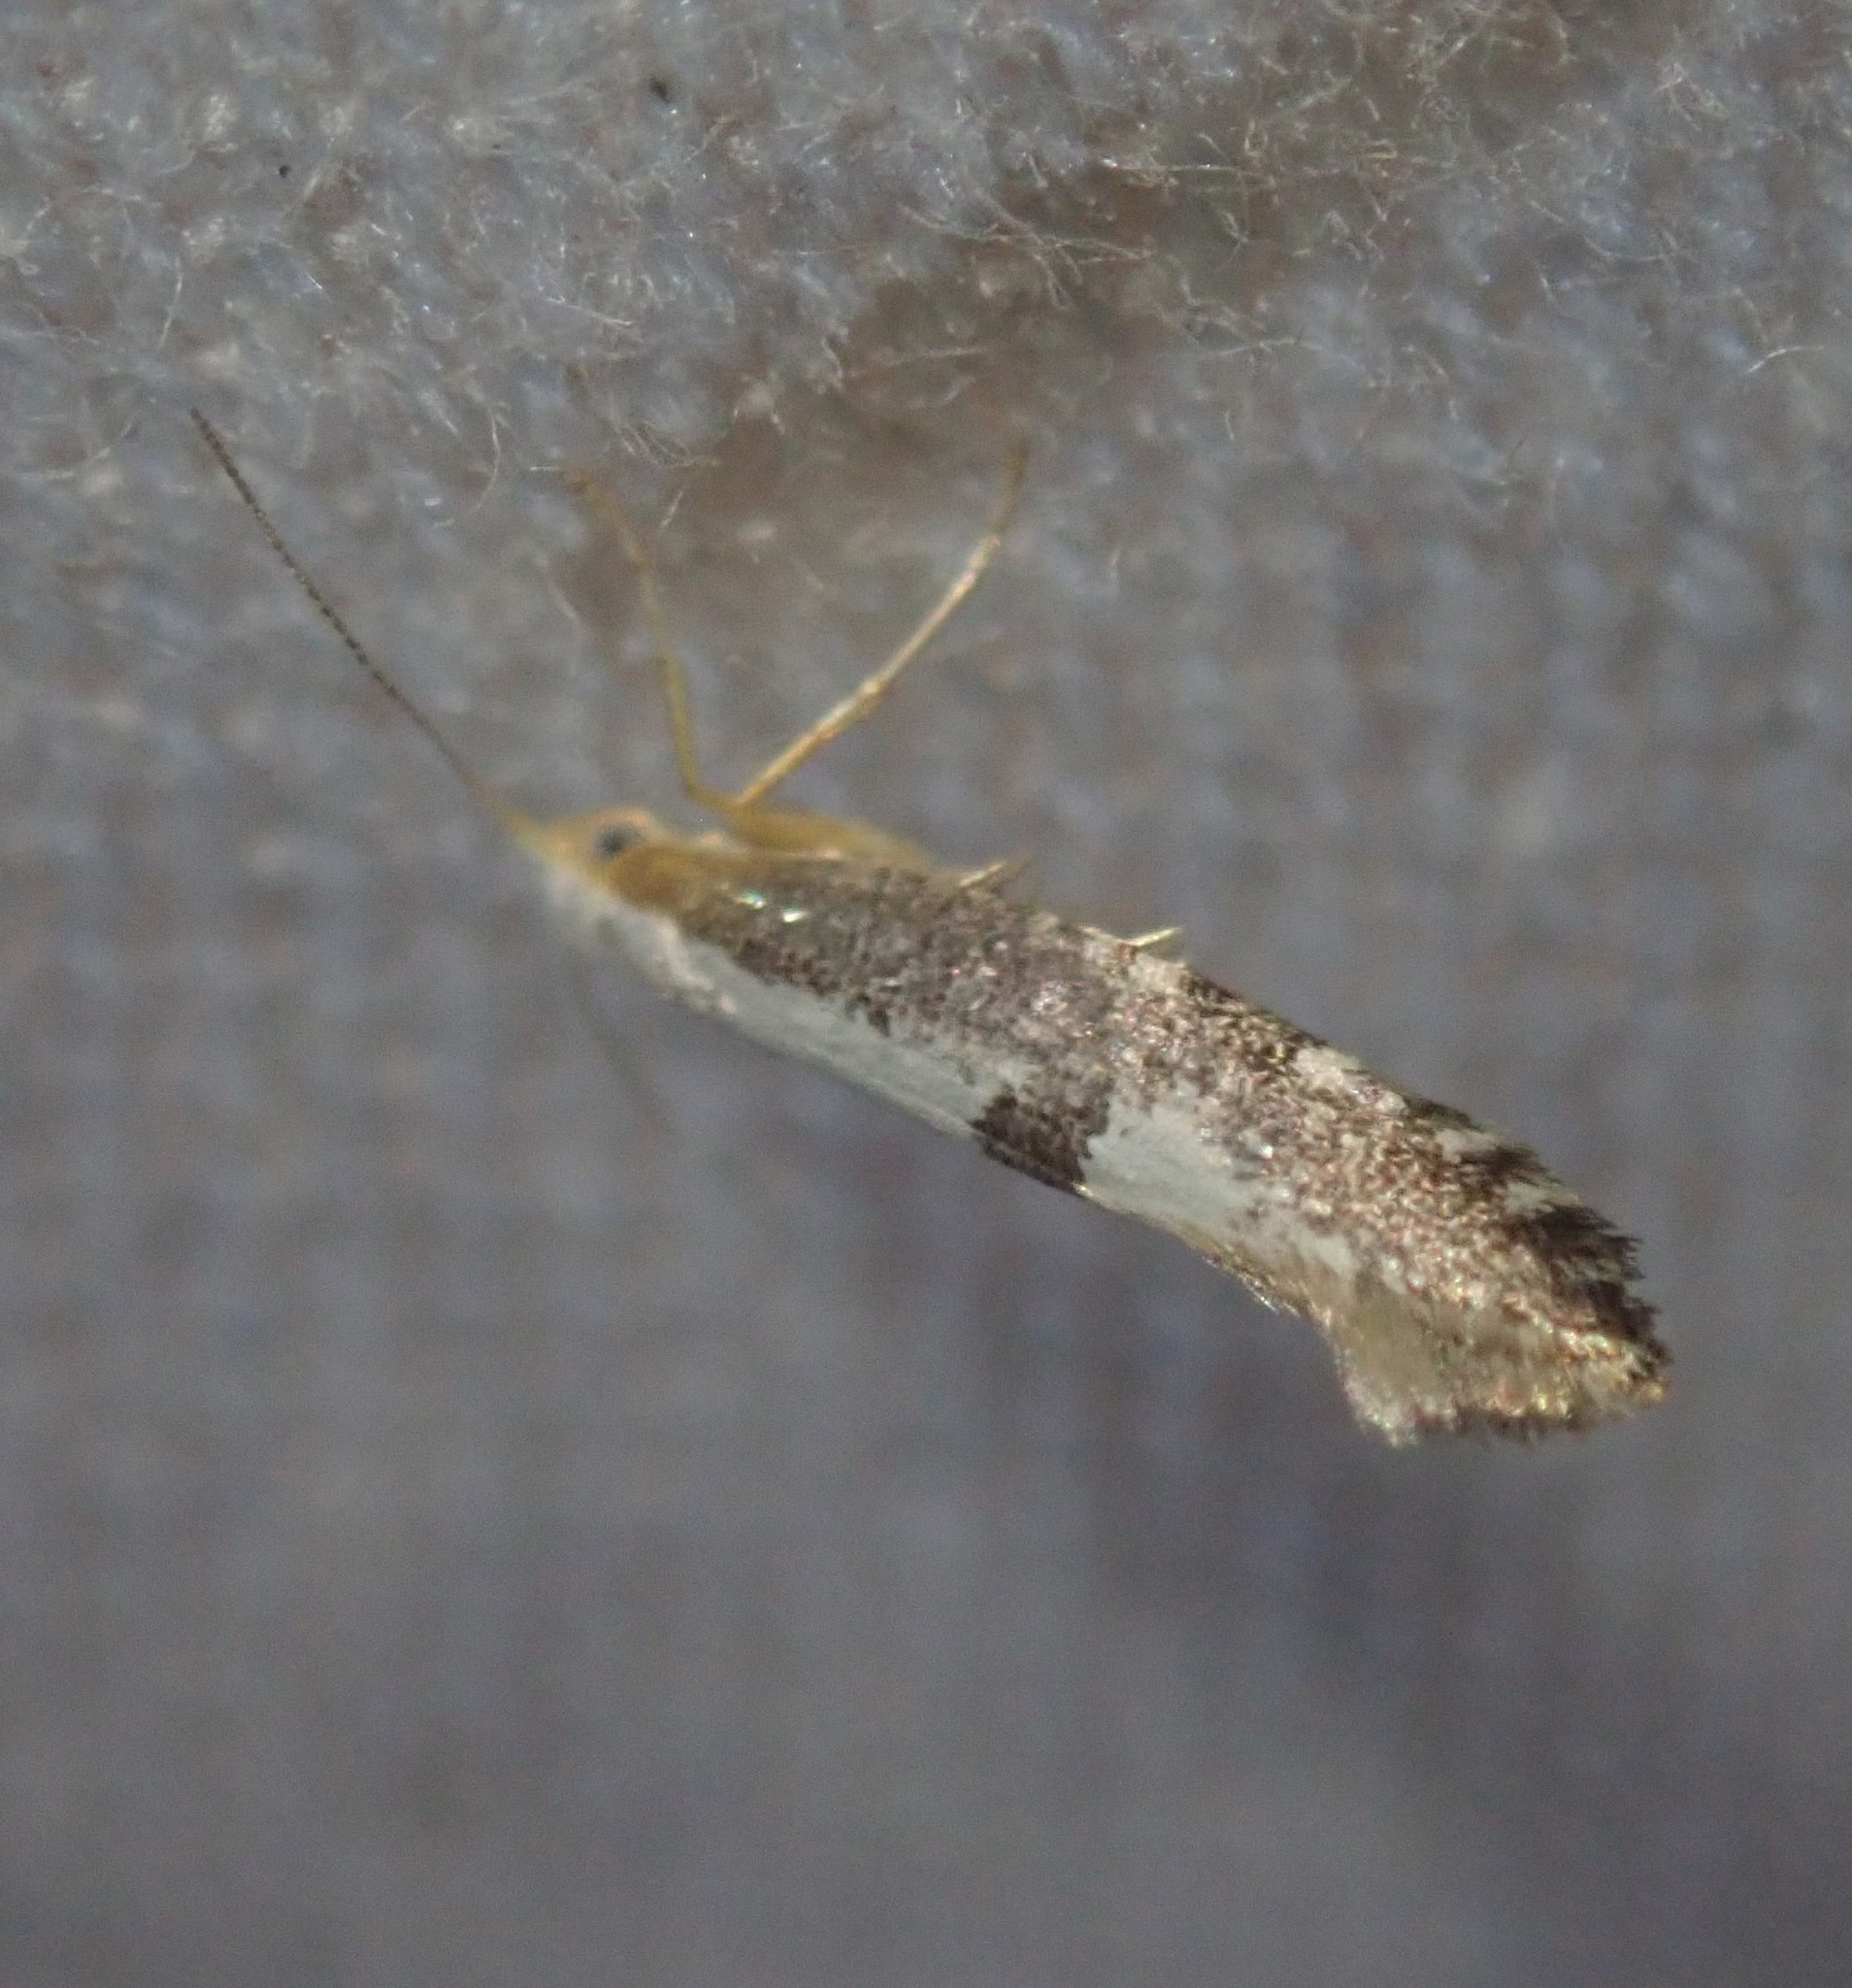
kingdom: Animalia
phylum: Arthropoda
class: Insecta
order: Lepidoptera
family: Argyresthiidae
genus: Argyresthia
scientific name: Argyresthia spinosella
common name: Blackthorn argent
